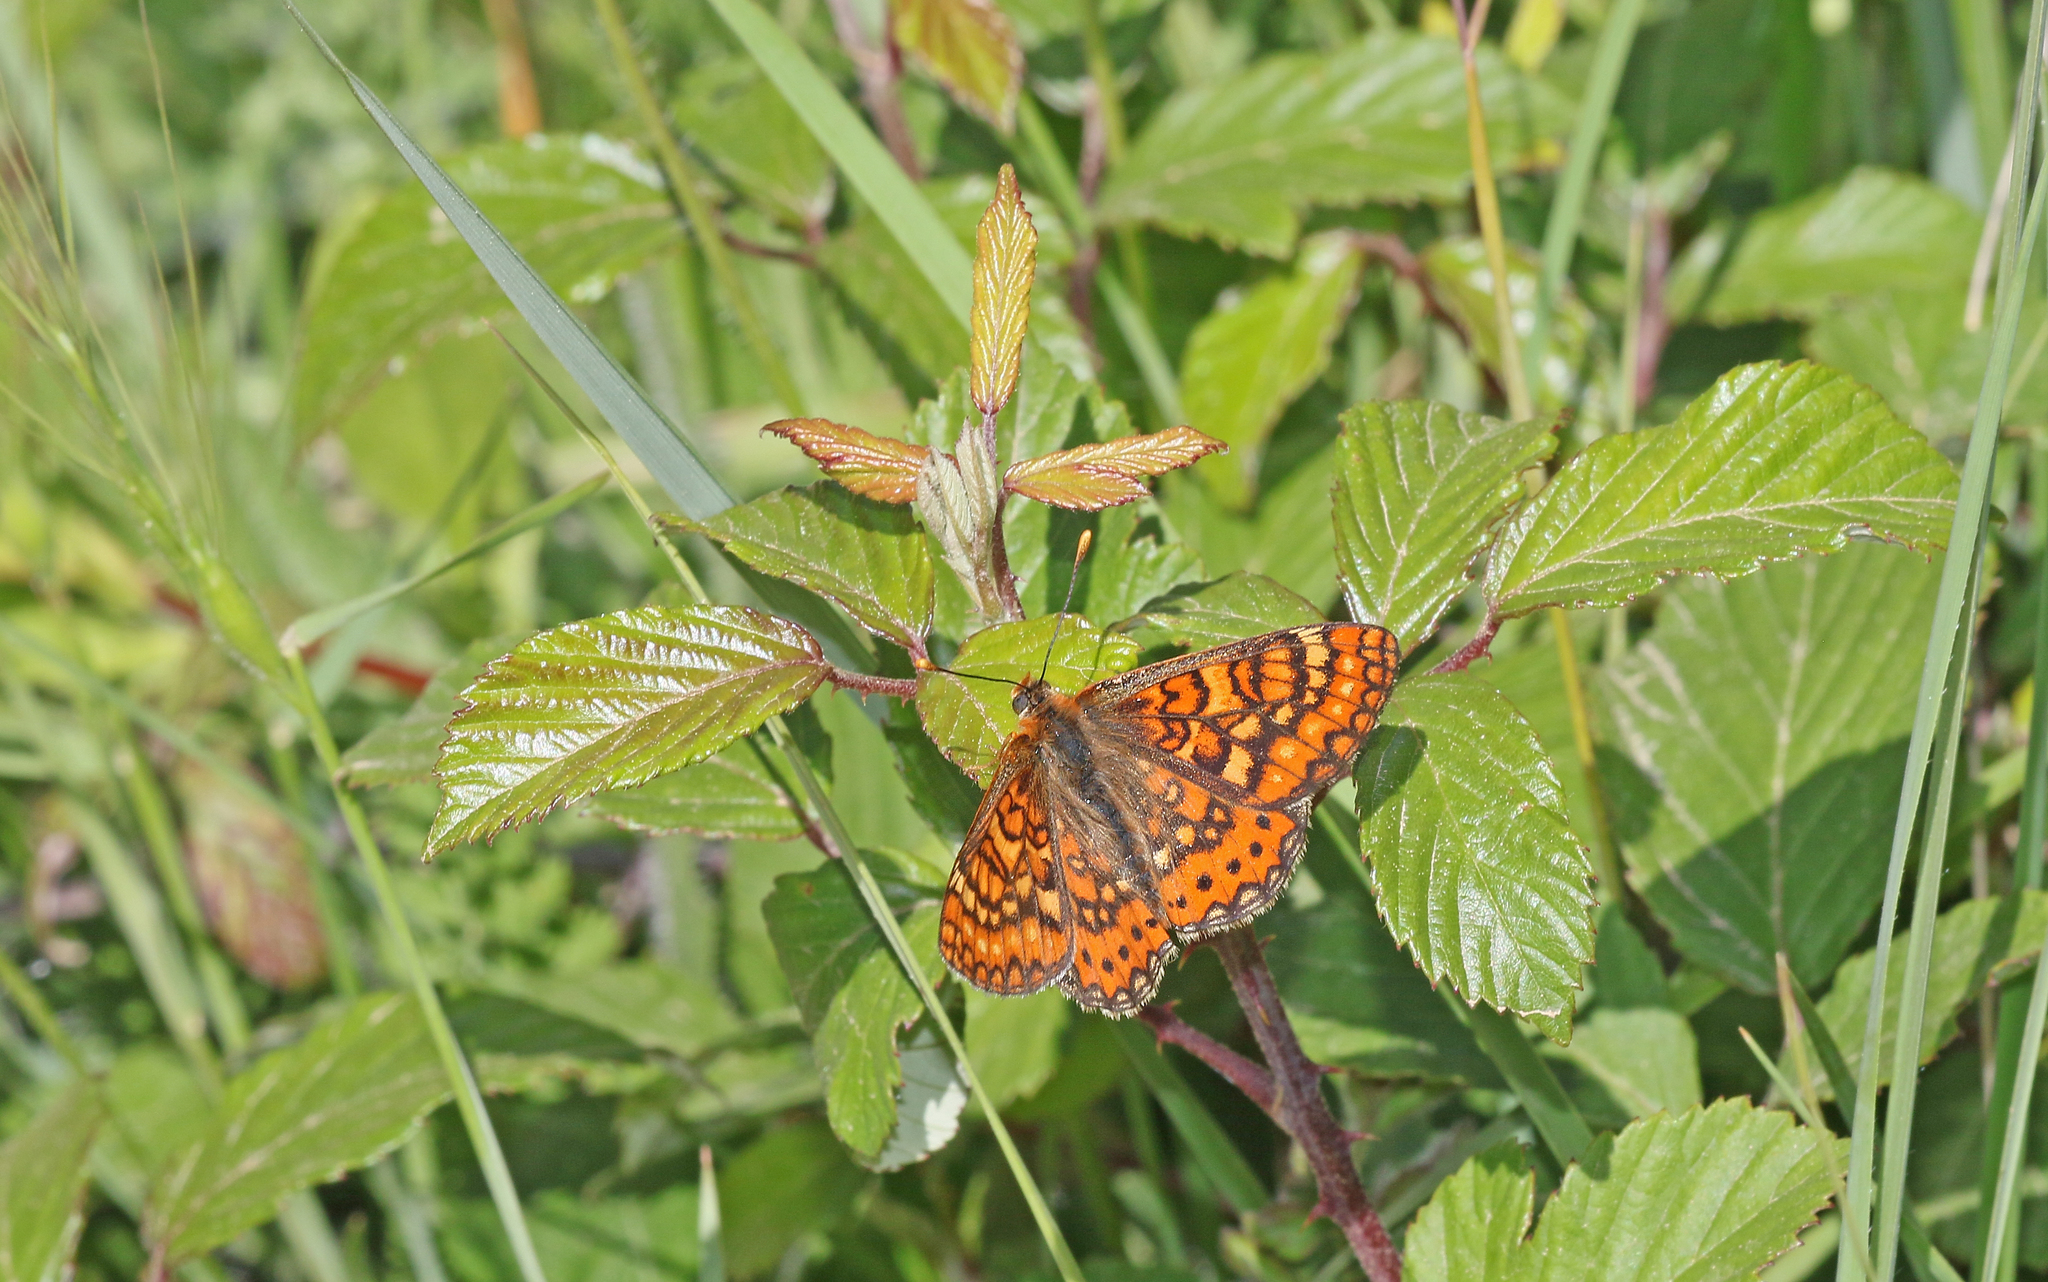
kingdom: Animalia
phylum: Arthropoda
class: Insecta
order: Lepidoptera
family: Nymphalidae
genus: Euphydryas
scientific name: Euphydryas aurinia
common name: Marsh fritillary
